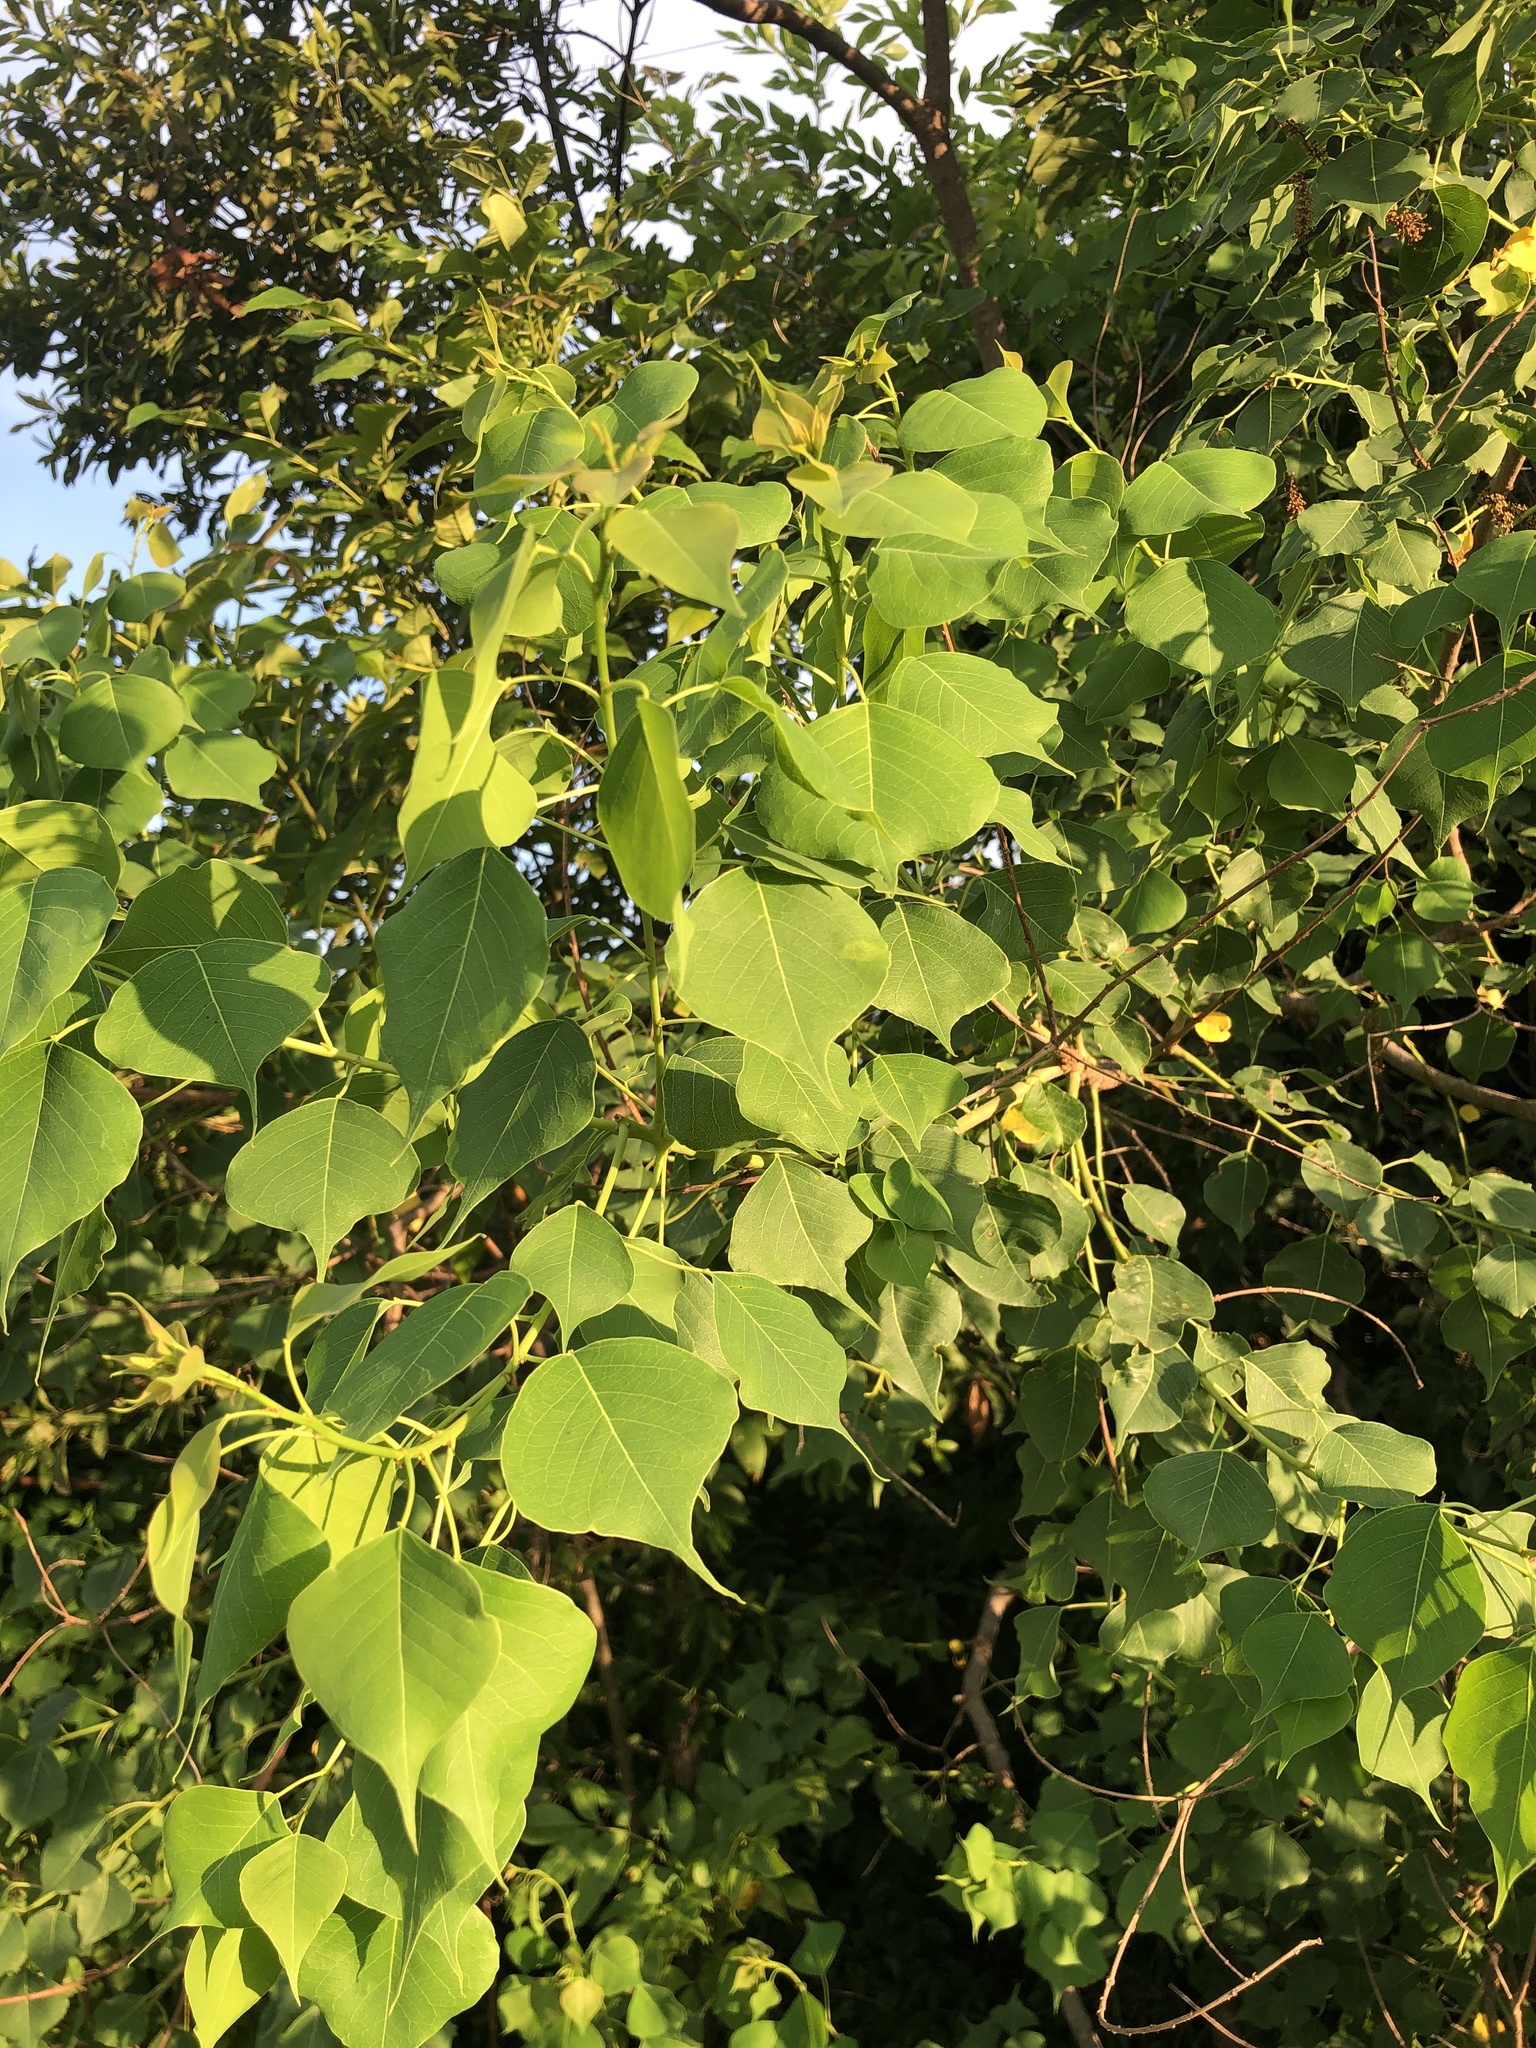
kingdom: Plantae
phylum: Tracheophyta
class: Magnoliopsida
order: Malpighiales
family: Euphorbiaceae
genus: Triadica
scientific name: Triadica sebifera
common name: Chinese tallow
